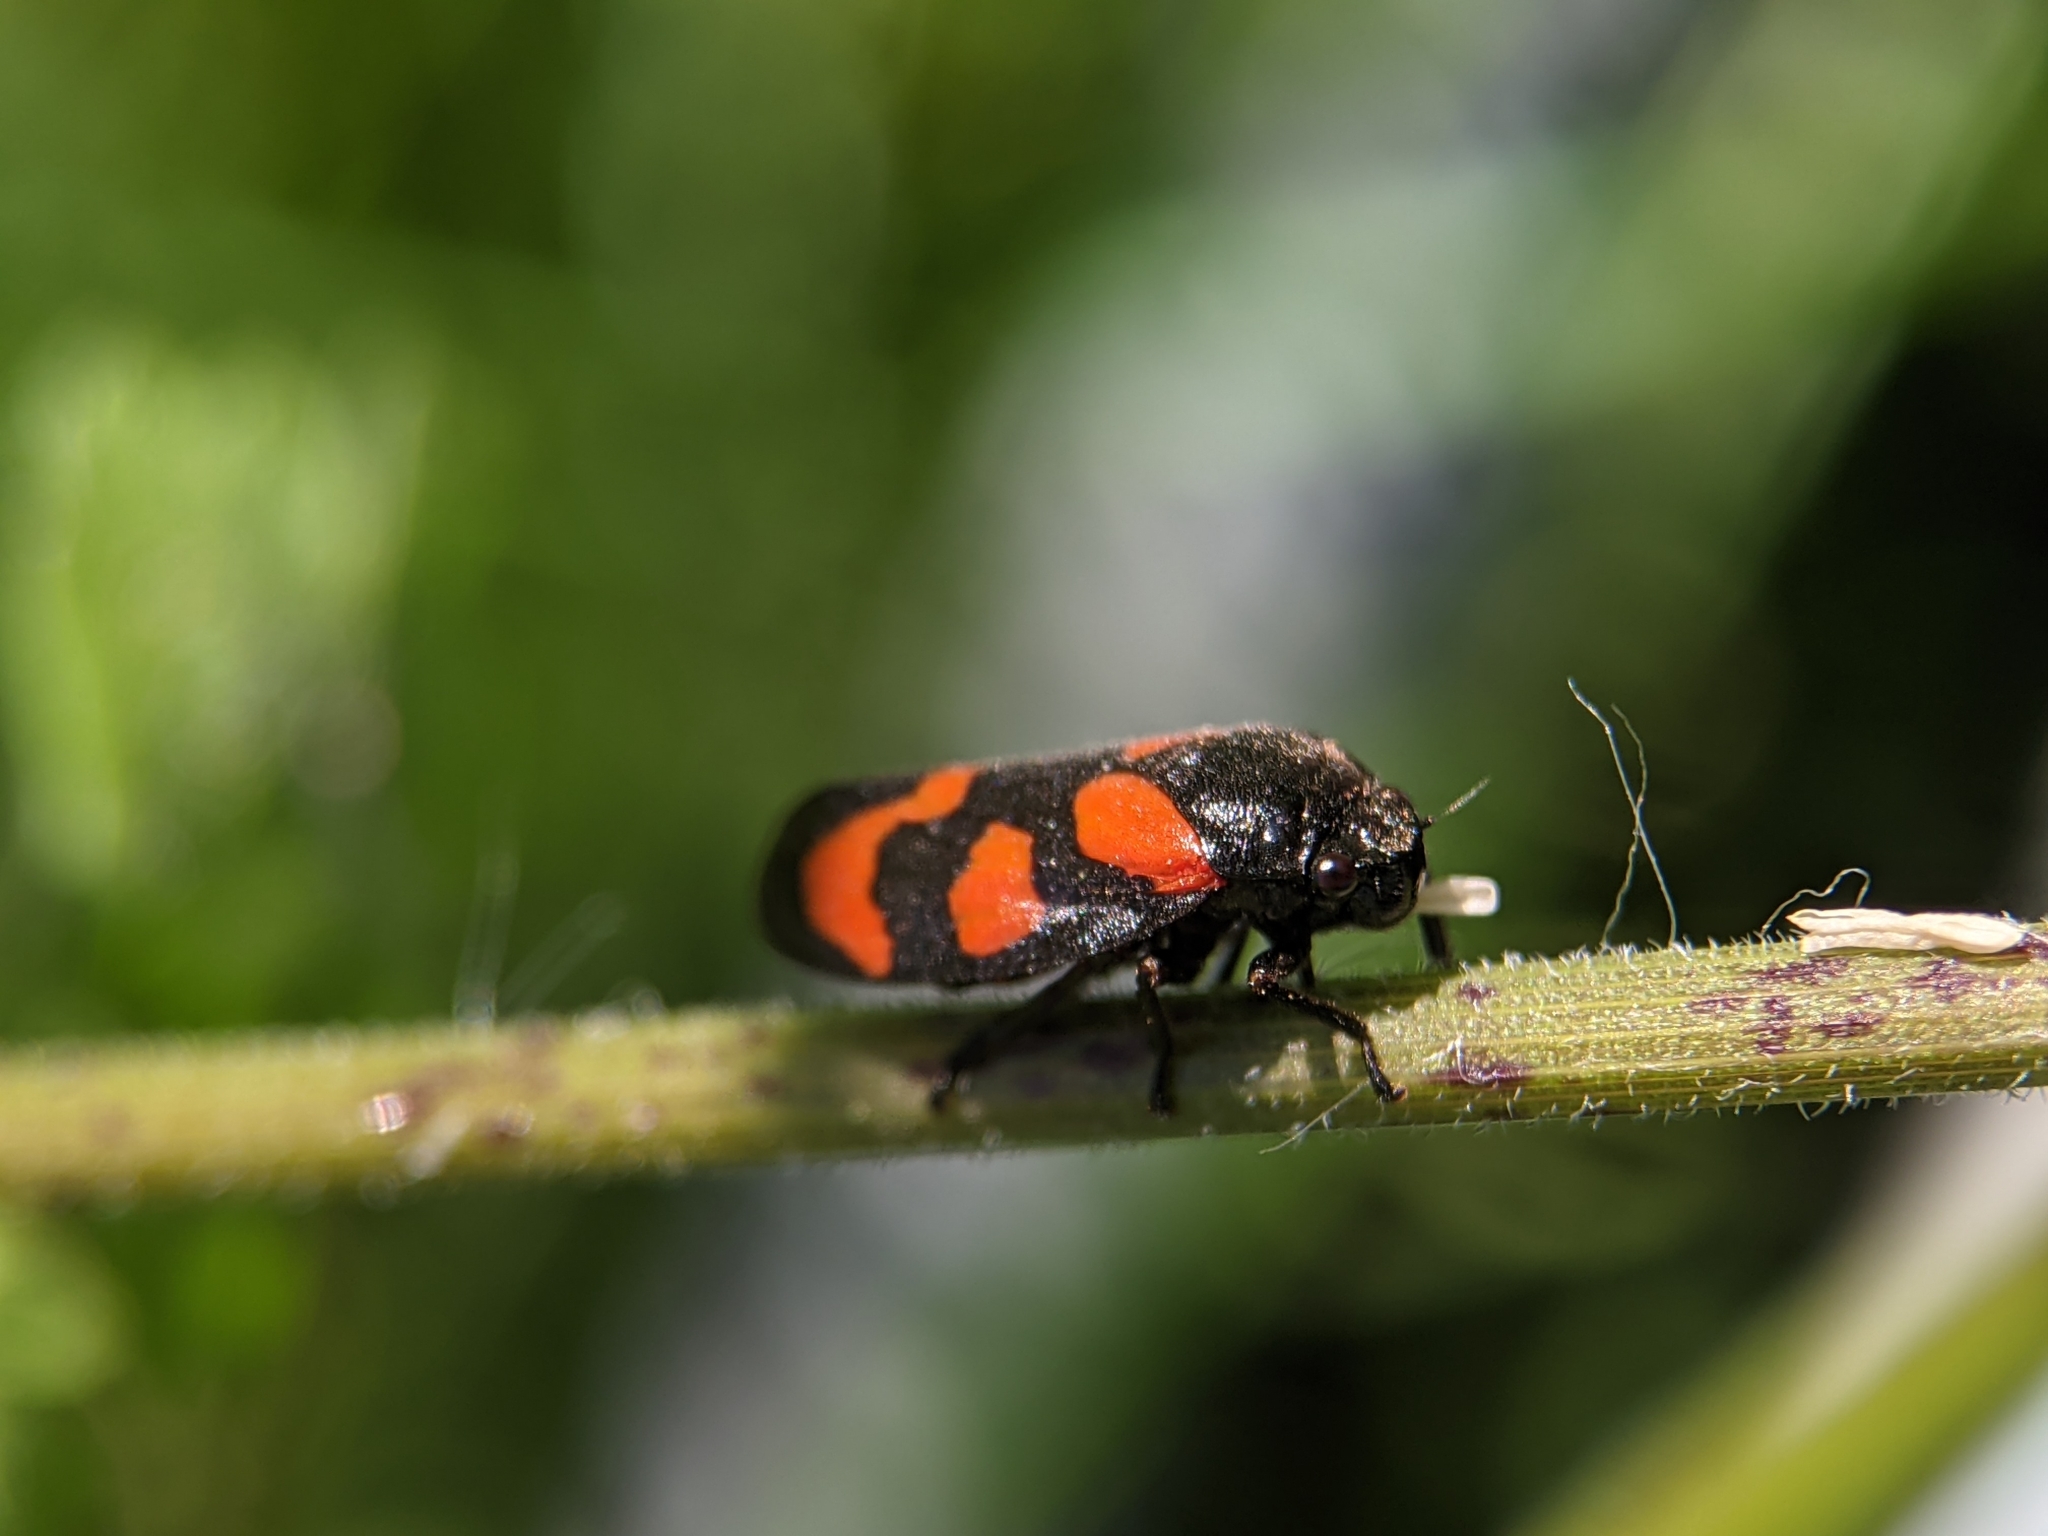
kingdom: Animalia
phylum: Arthropoda
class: Insecta
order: Hemiptera
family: Cercopidae
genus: Cercopis
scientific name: Cercopis vulnerata
